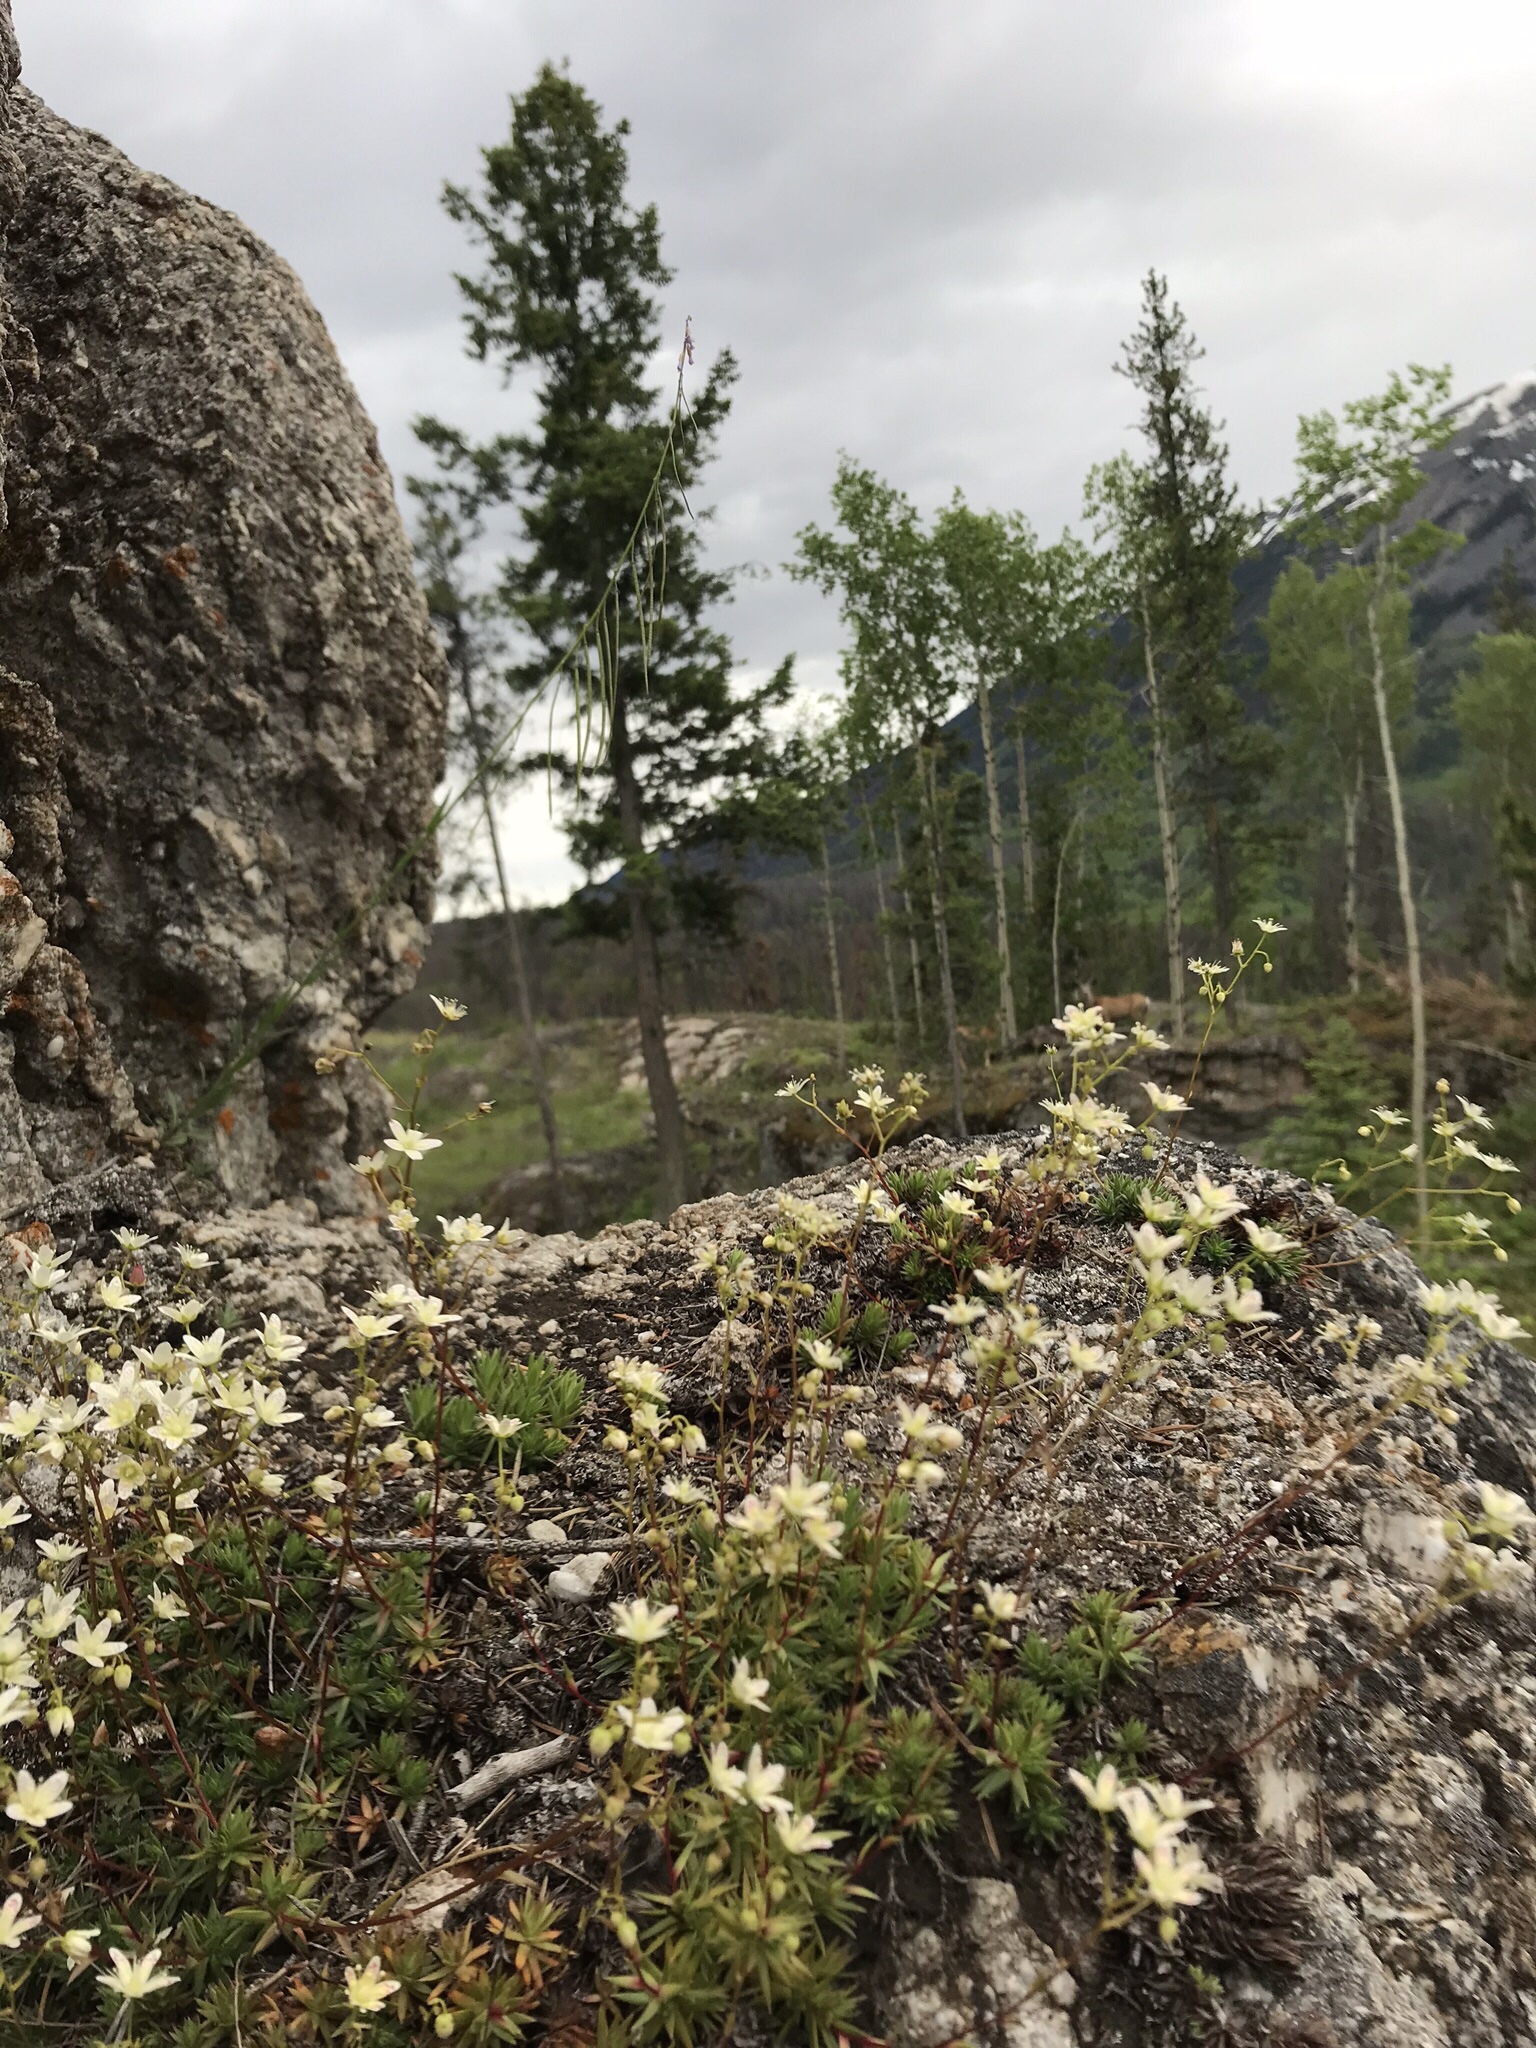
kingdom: Plantae
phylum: Tracheophyta
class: Magnoliopsida
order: Saxifragales
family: Saxifragaceae
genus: Saxifraga
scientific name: Saxifraga bronchialis
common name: Matted saxifrage
